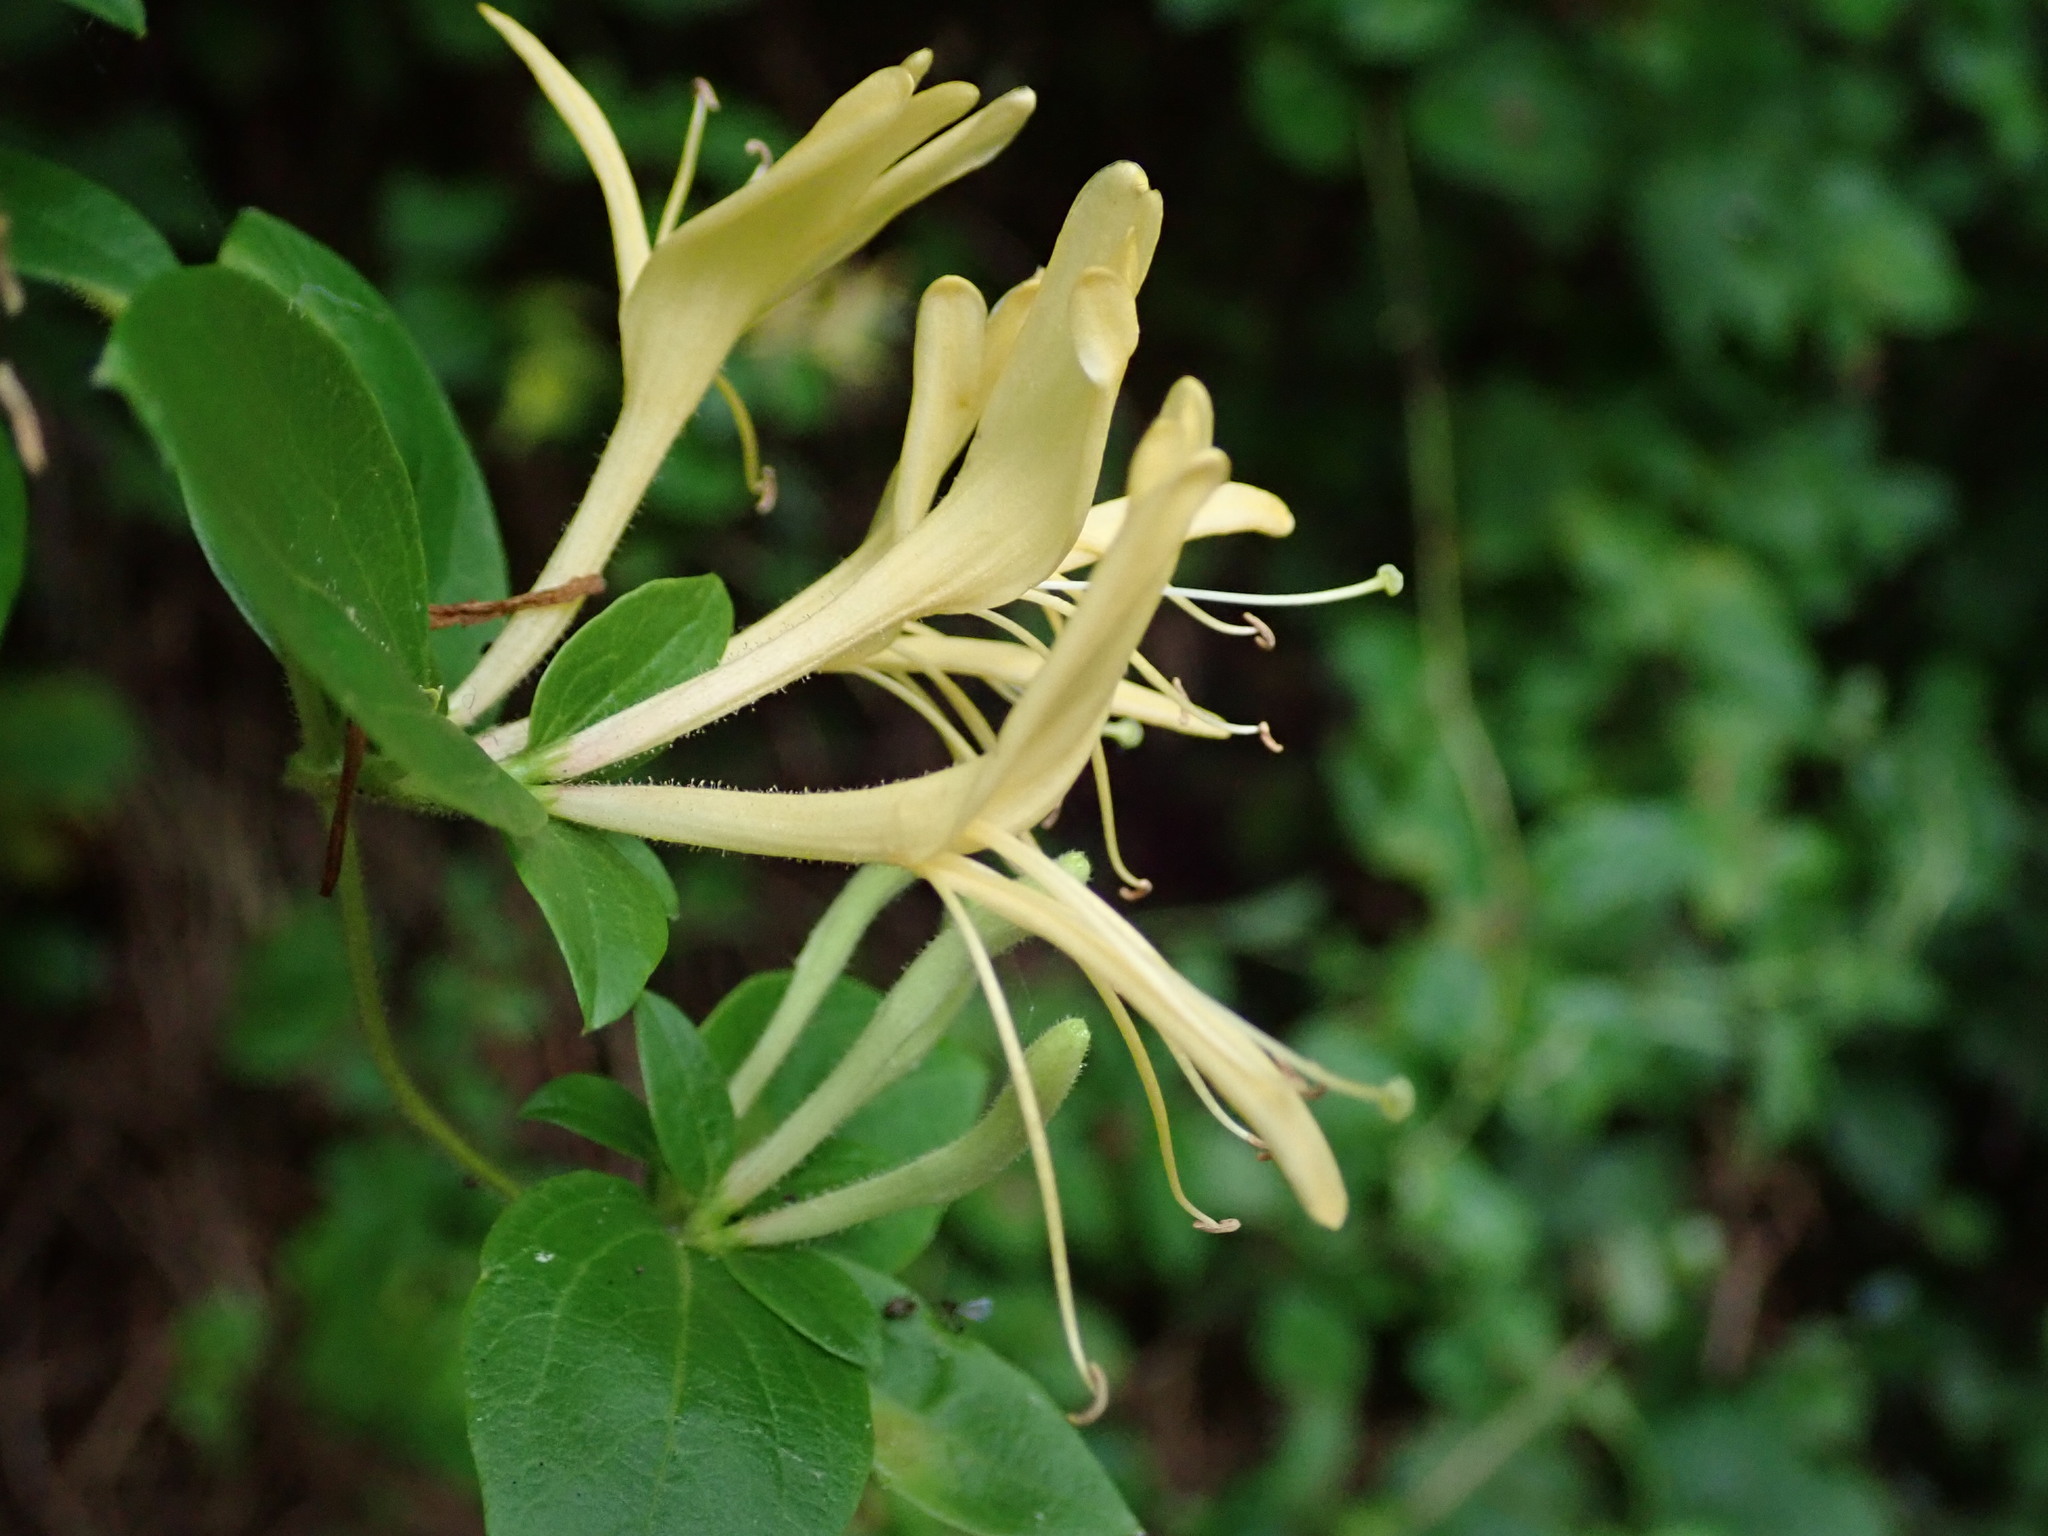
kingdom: Plantae
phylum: Tracheophyta
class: Magnoliopsida
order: Dipsacales
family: Caprifoliaceae
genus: Lonicera
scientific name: Lonicera japonica
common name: Japanese honeysuckle
